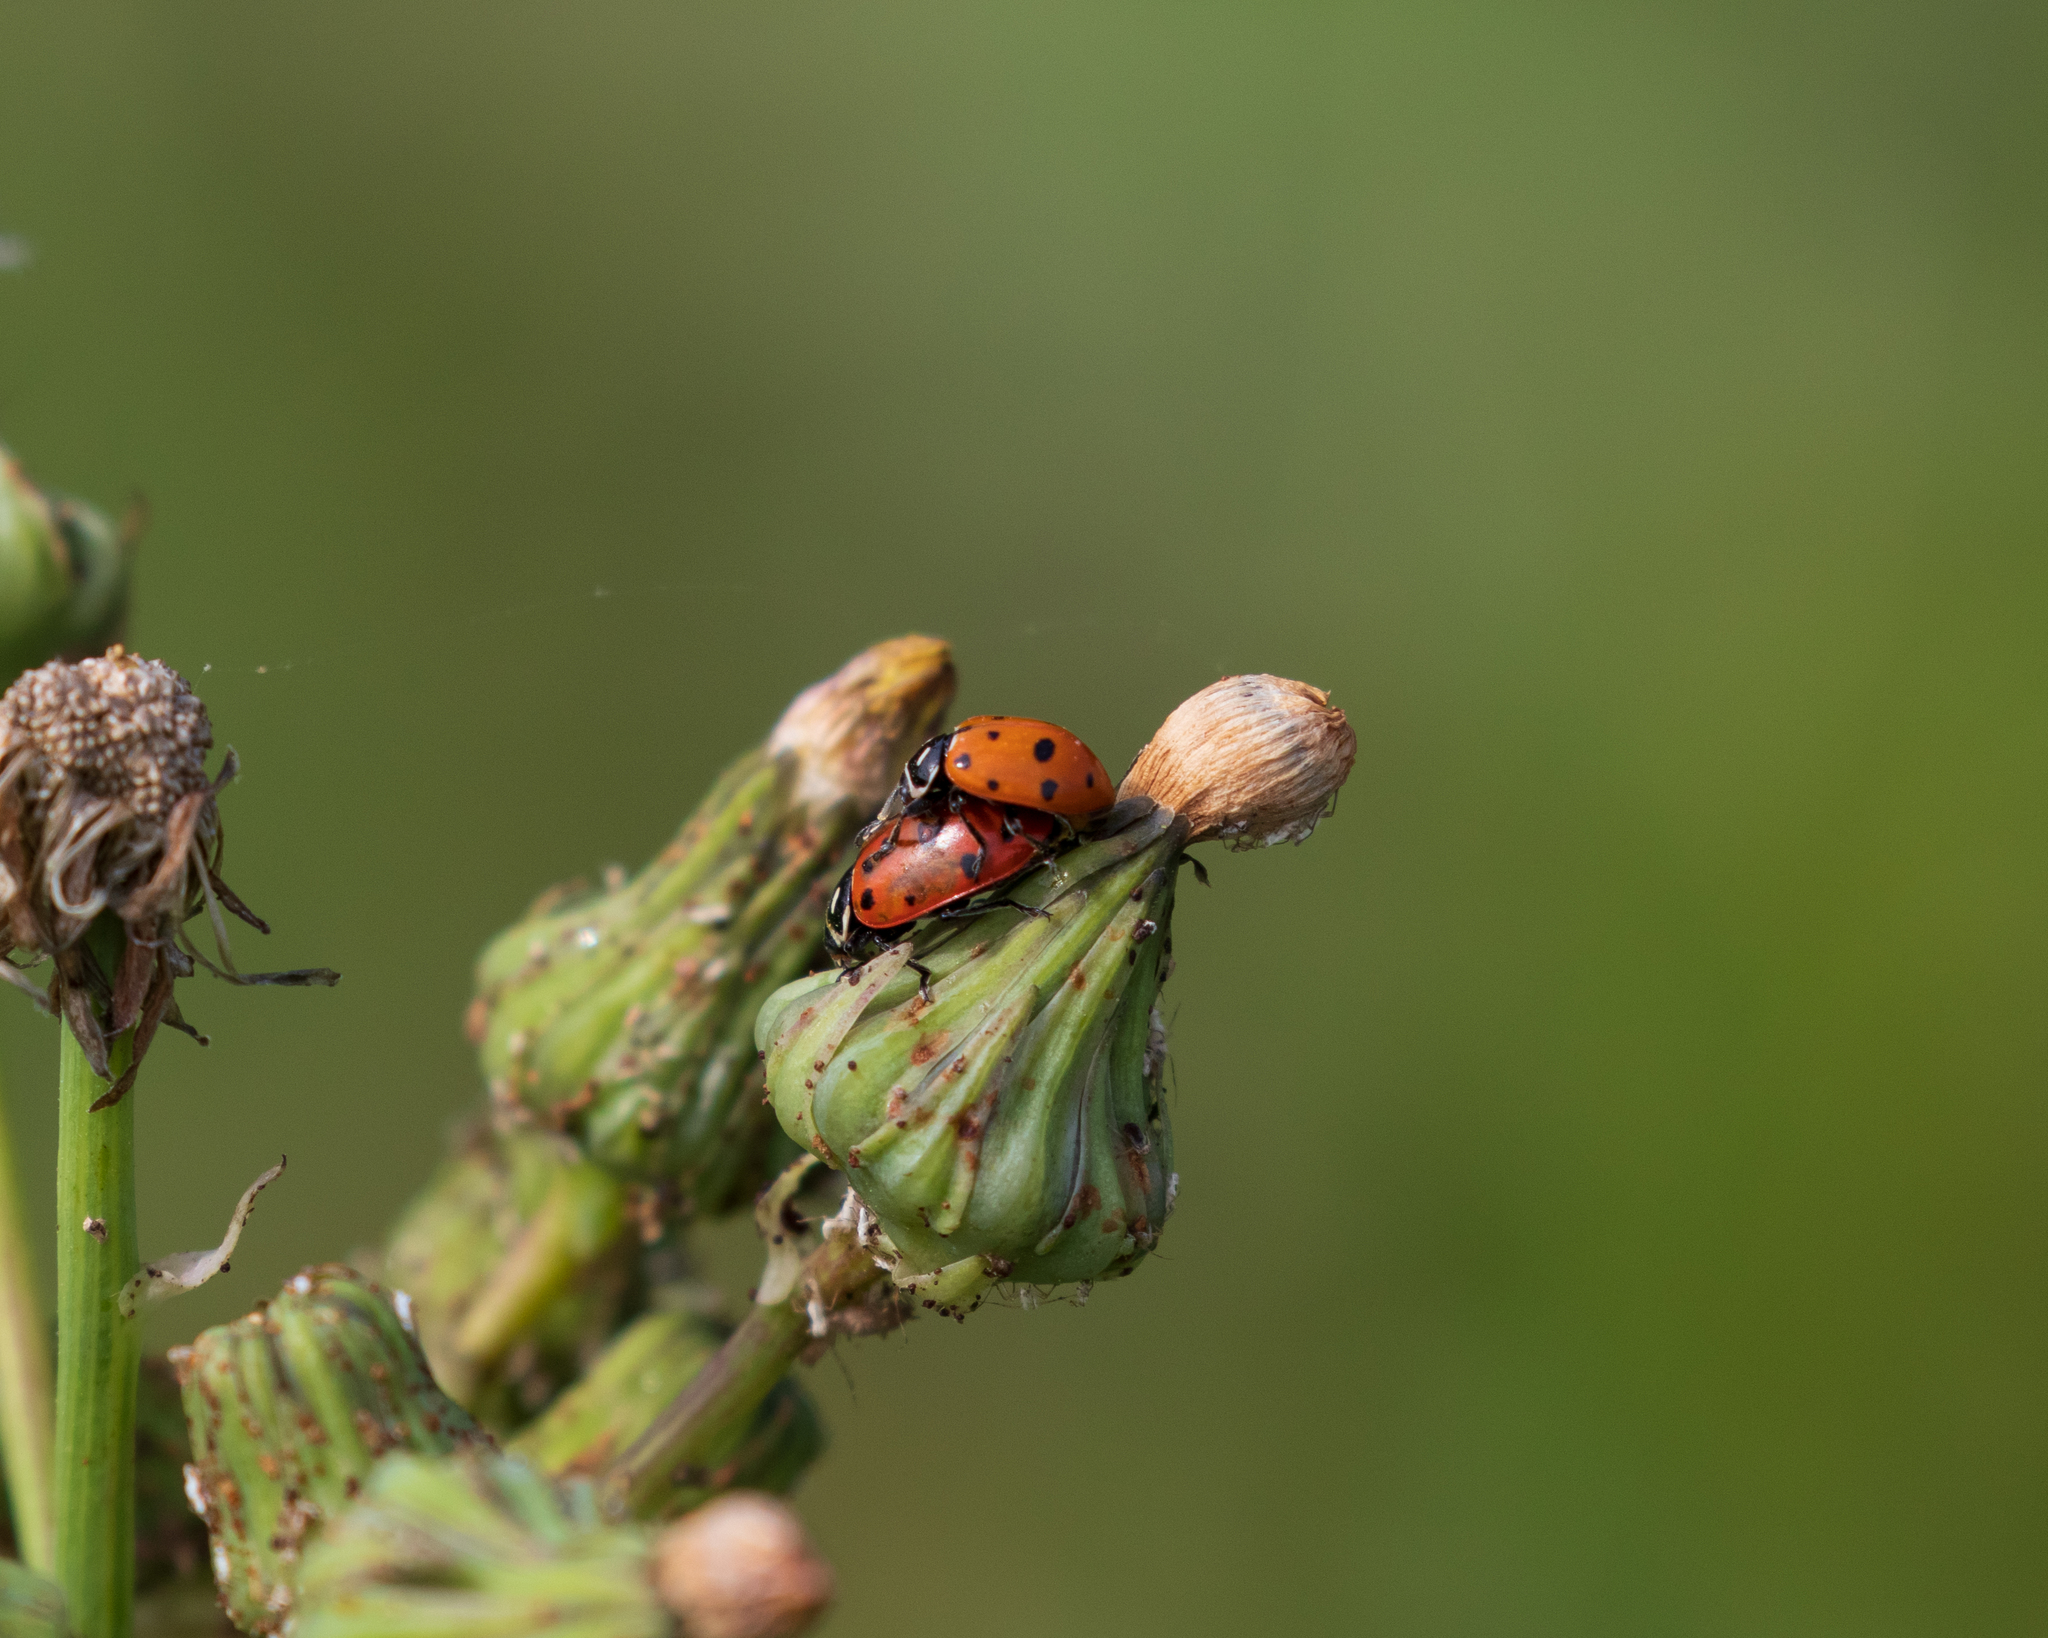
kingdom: Animalia
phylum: Arthropoda
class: Insecta
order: Coleoptera
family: Coccinellidae
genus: Hippodamia
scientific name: Hippodamia convergens
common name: Convergent lady beetle
